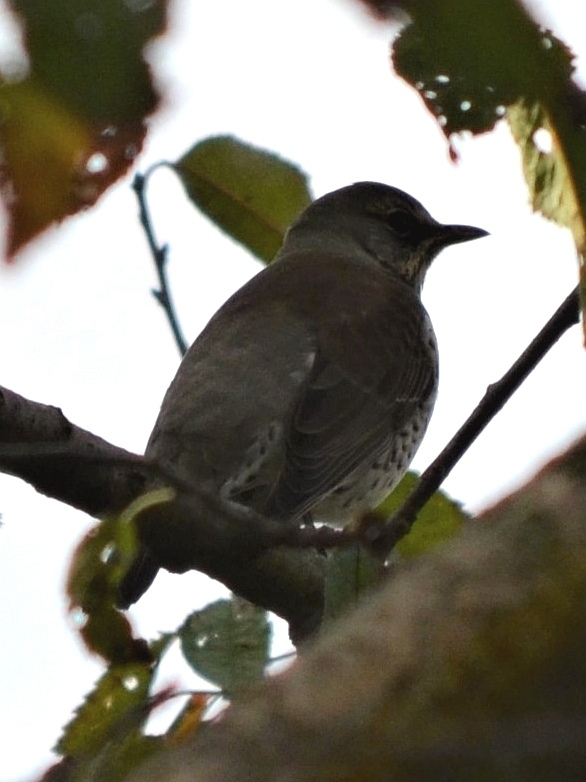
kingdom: Animalia
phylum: Chordata
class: Aves
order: Passeriformes
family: Turdidae
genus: Turdus
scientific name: Turdus pilaris
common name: Fieldfare
